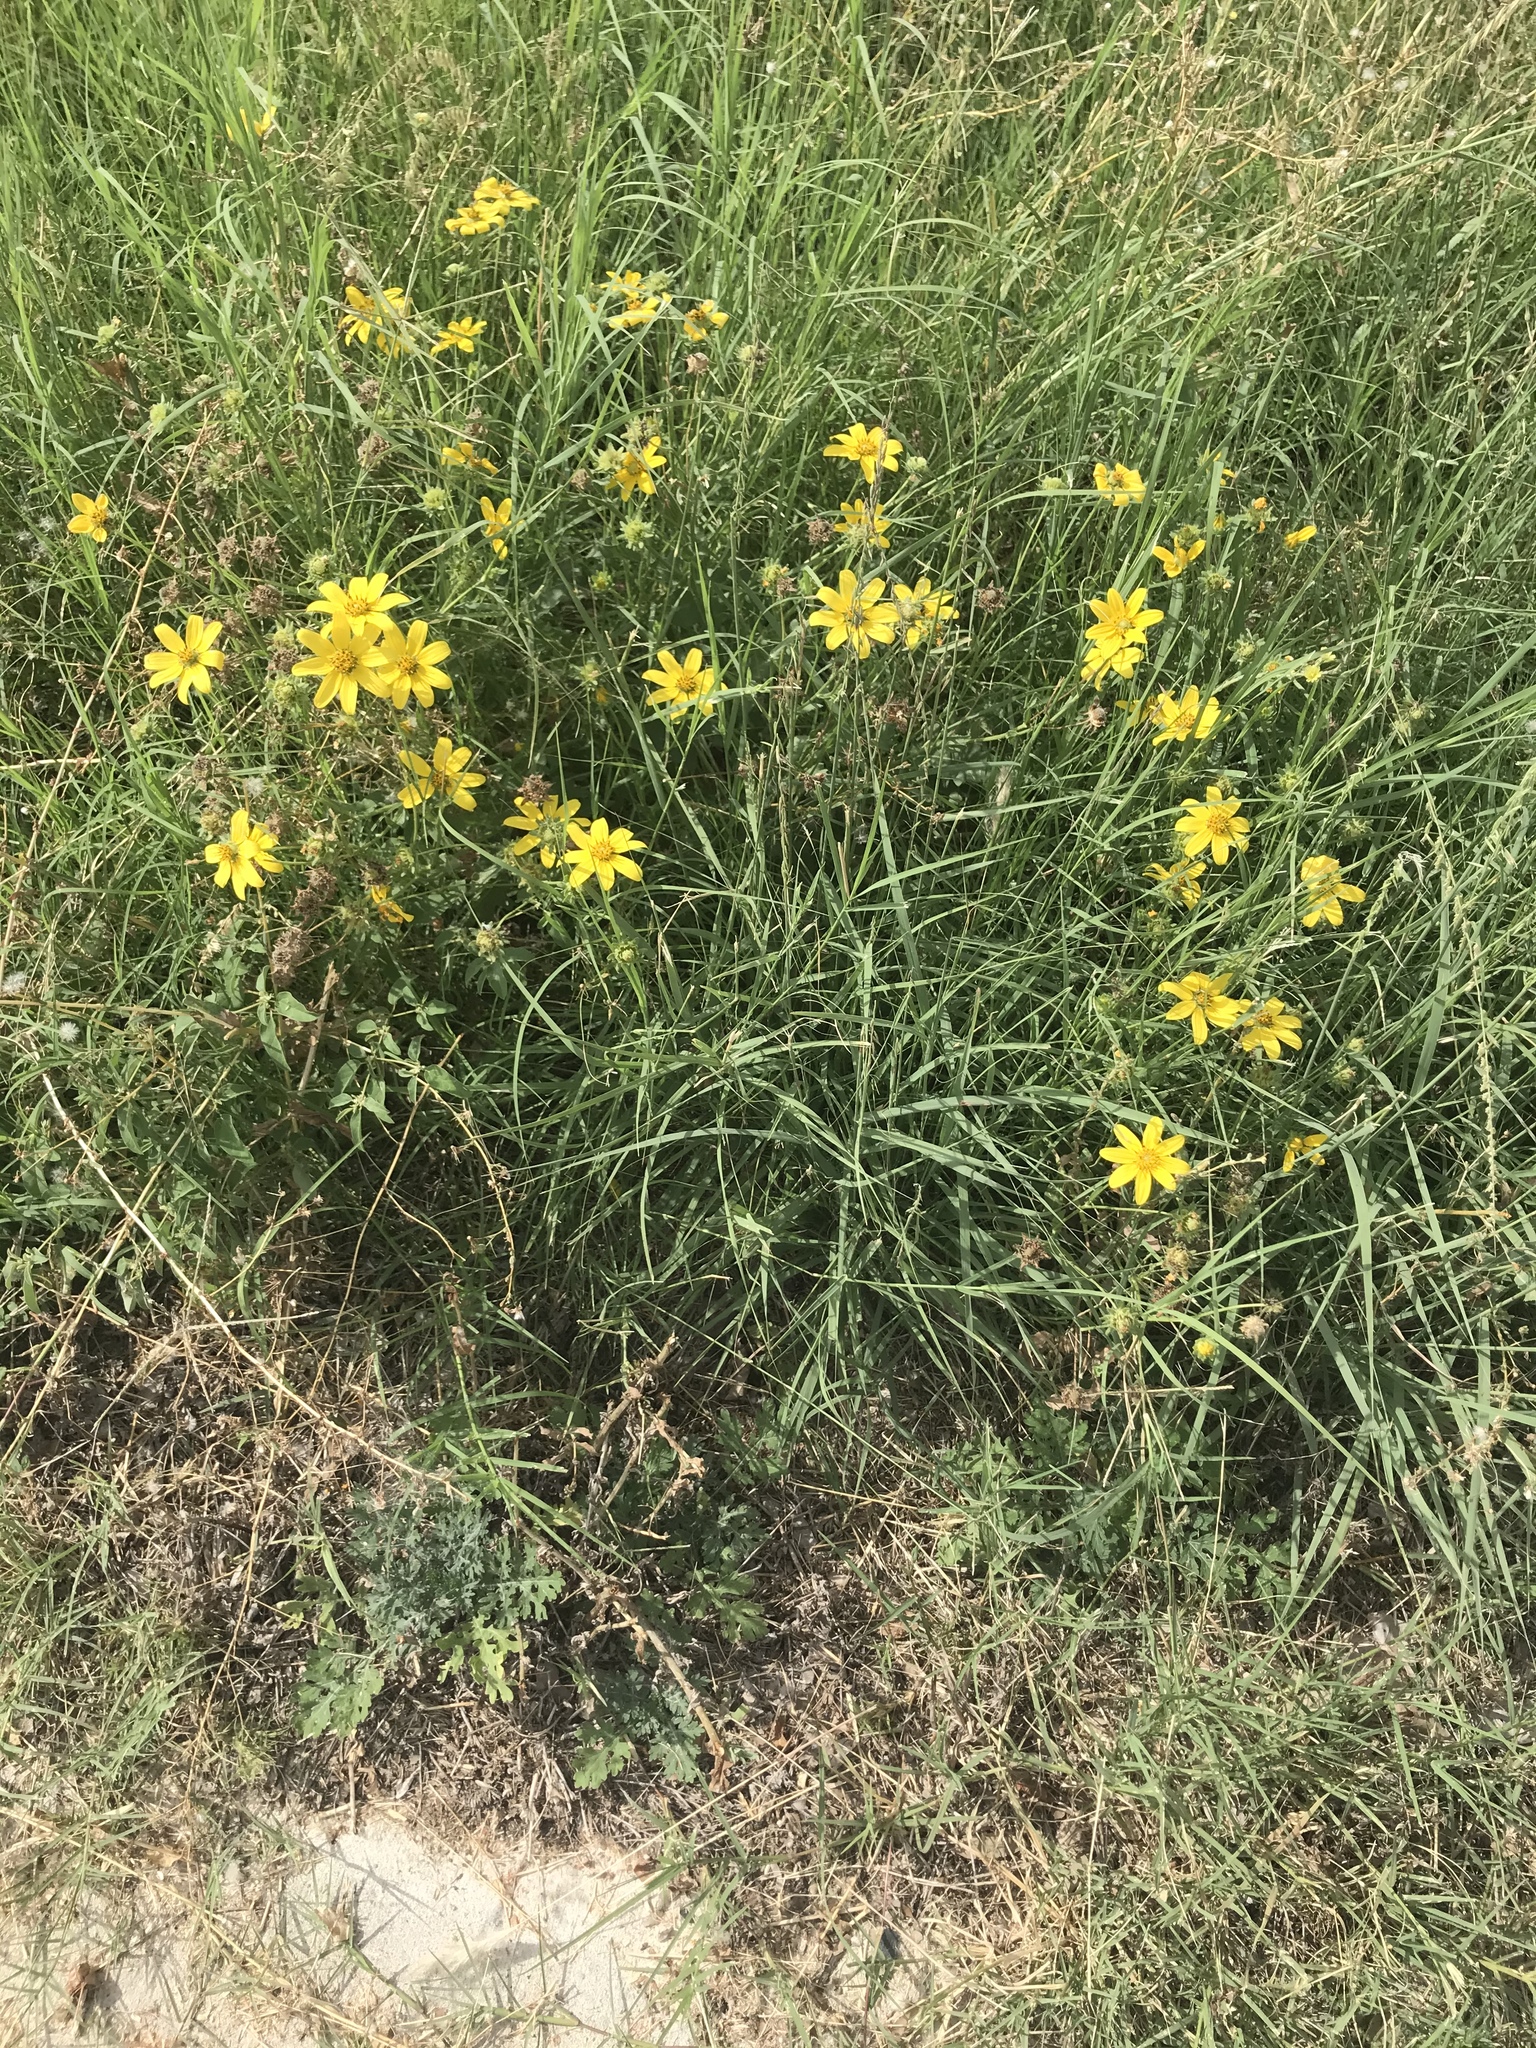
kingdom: Plantae
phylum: Tracheophyta
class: Magnoliopsida
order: Asterales
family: Asteraceae
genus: Engelmannia
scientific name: Engelmannia peristenia
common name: Engelmann's daisy
